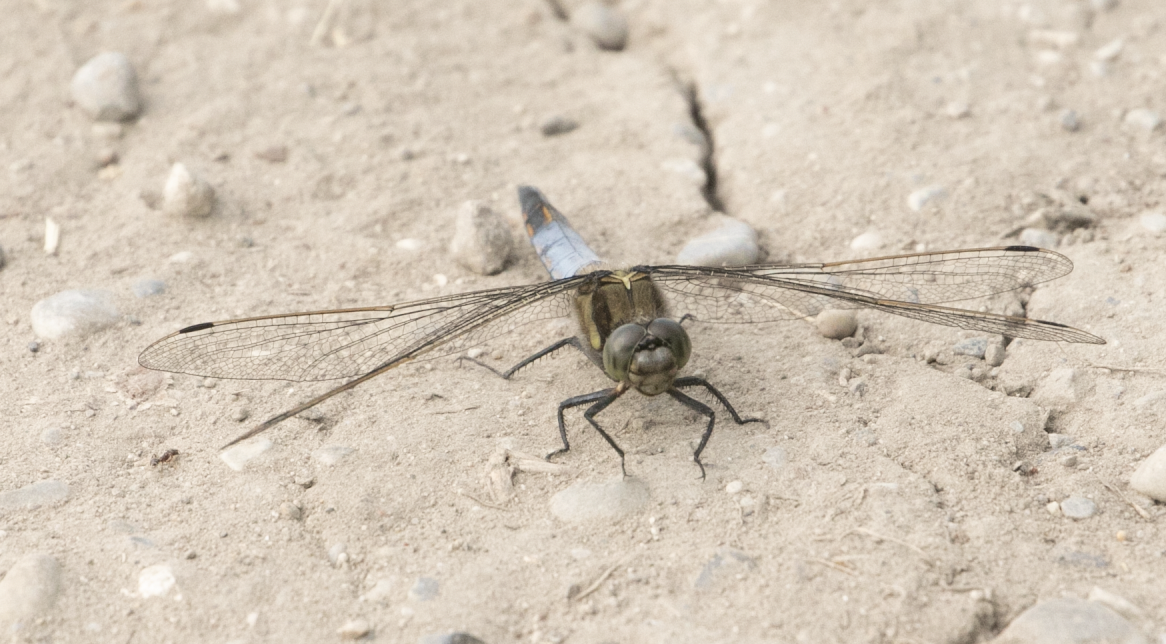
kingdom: Animalia
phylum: Arthropoda
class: Insecta
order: Odonata
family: Libellulidae
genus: Orthetrum
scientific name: Orthetrum cancellatum
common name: Black-tailed skimmer
